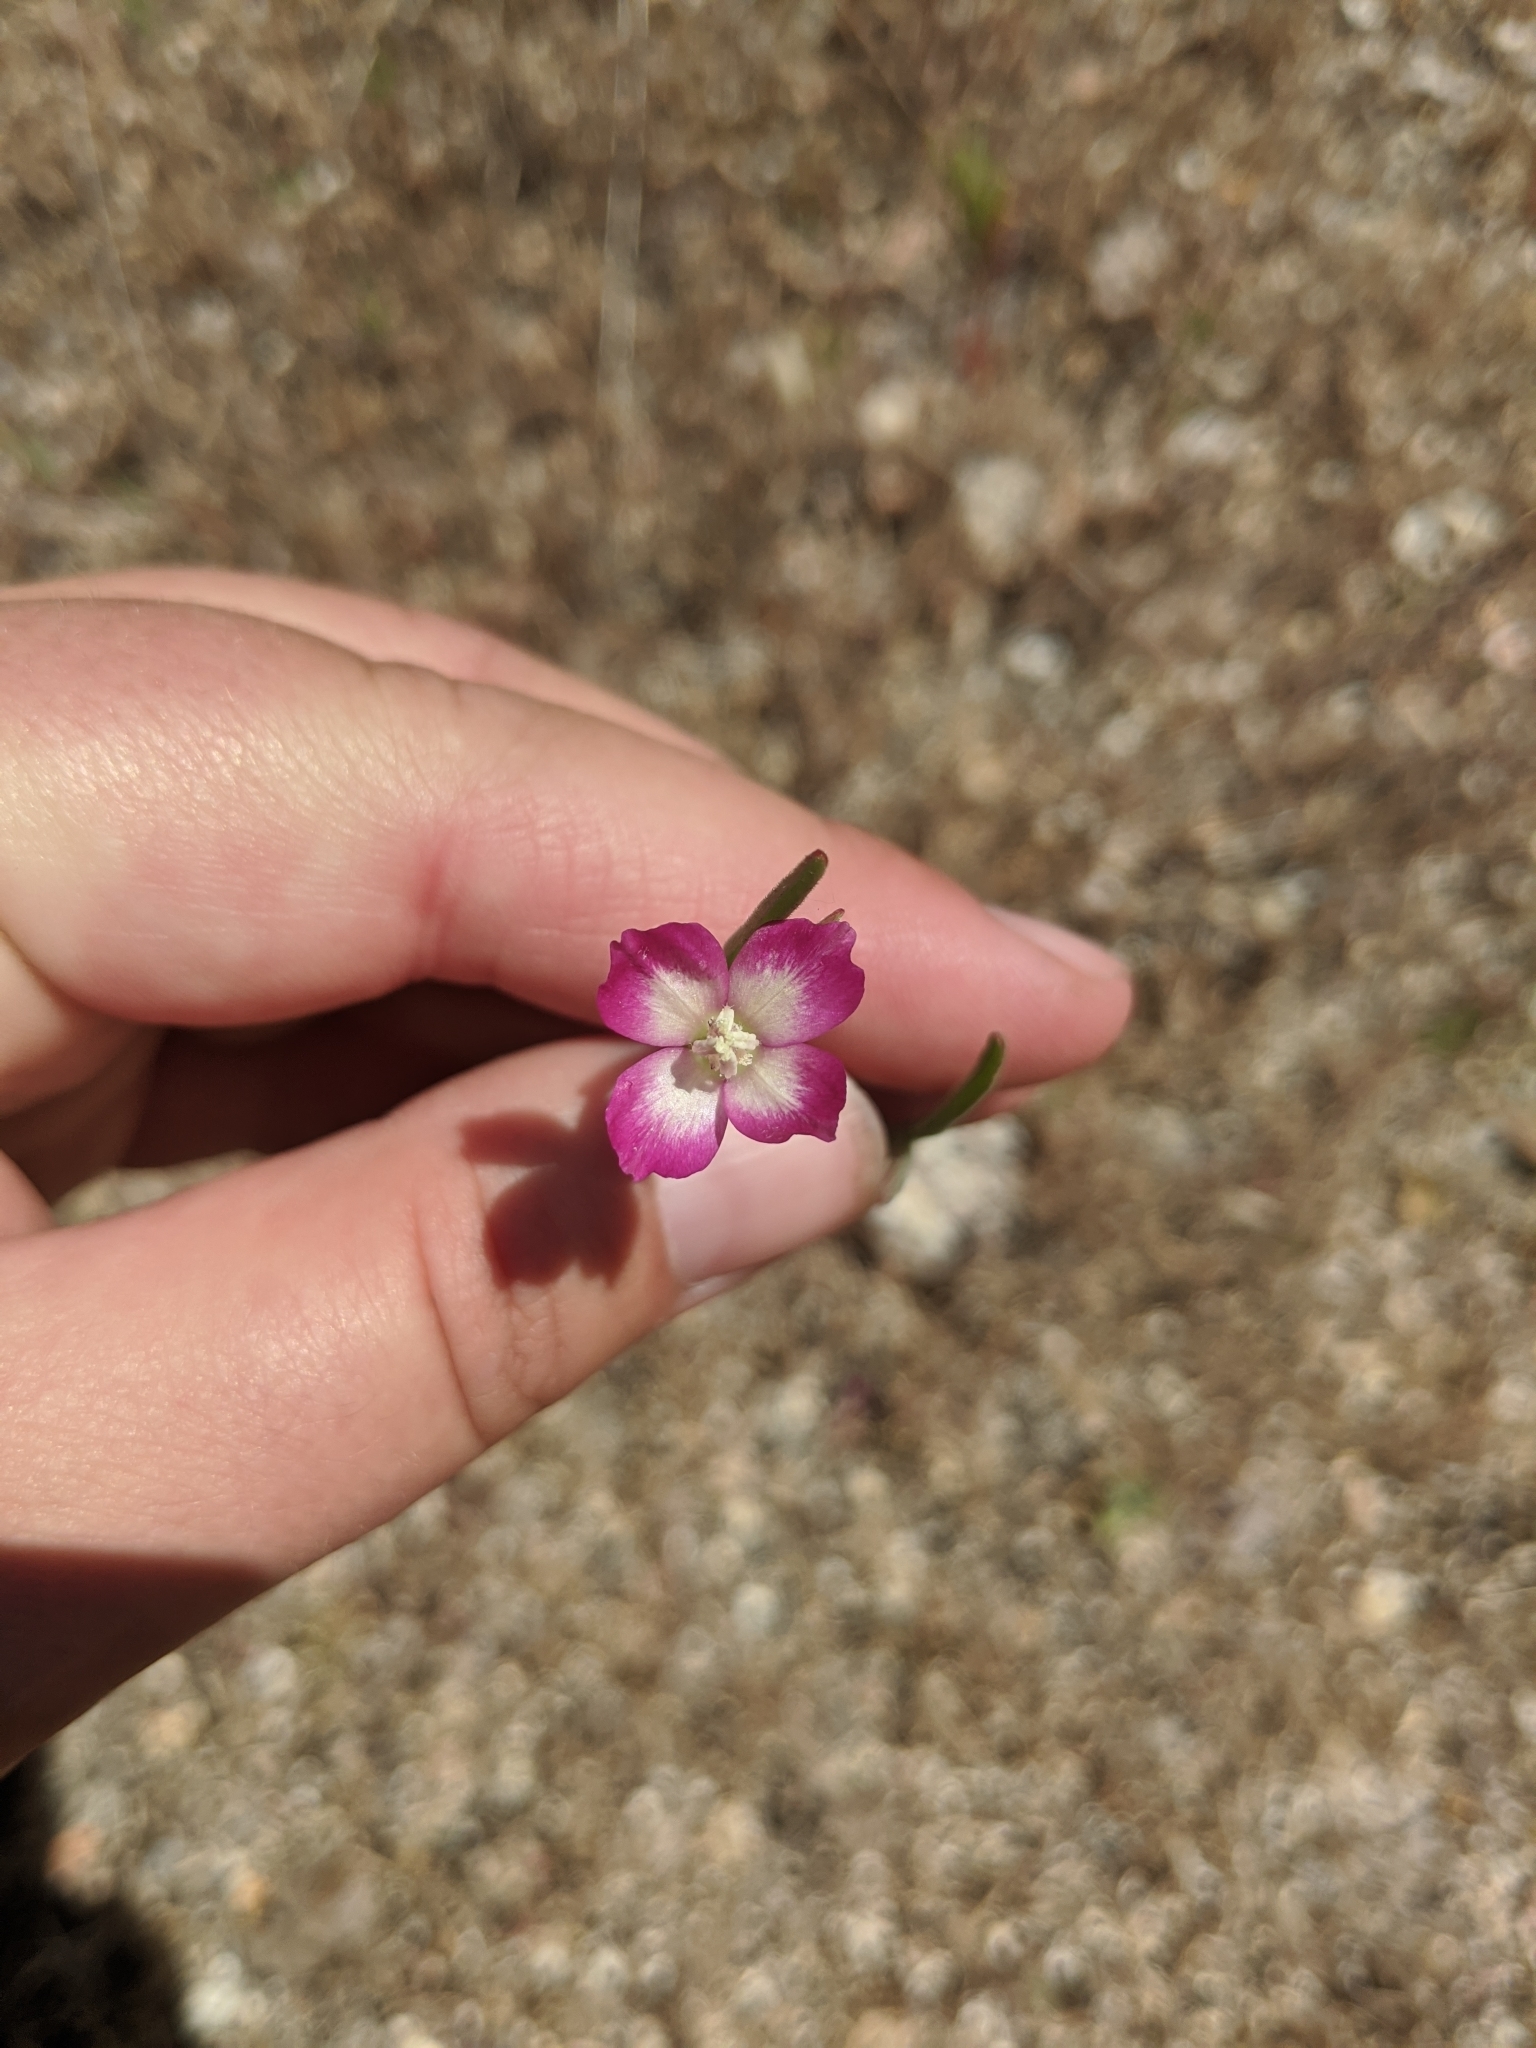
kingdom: Plantae
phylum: Tracheophyta
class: Magnoliopsida
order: Myrtales
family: Onagraceae
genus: Clarkia
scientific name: Clarkia purpurea
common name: Purple clarkia
